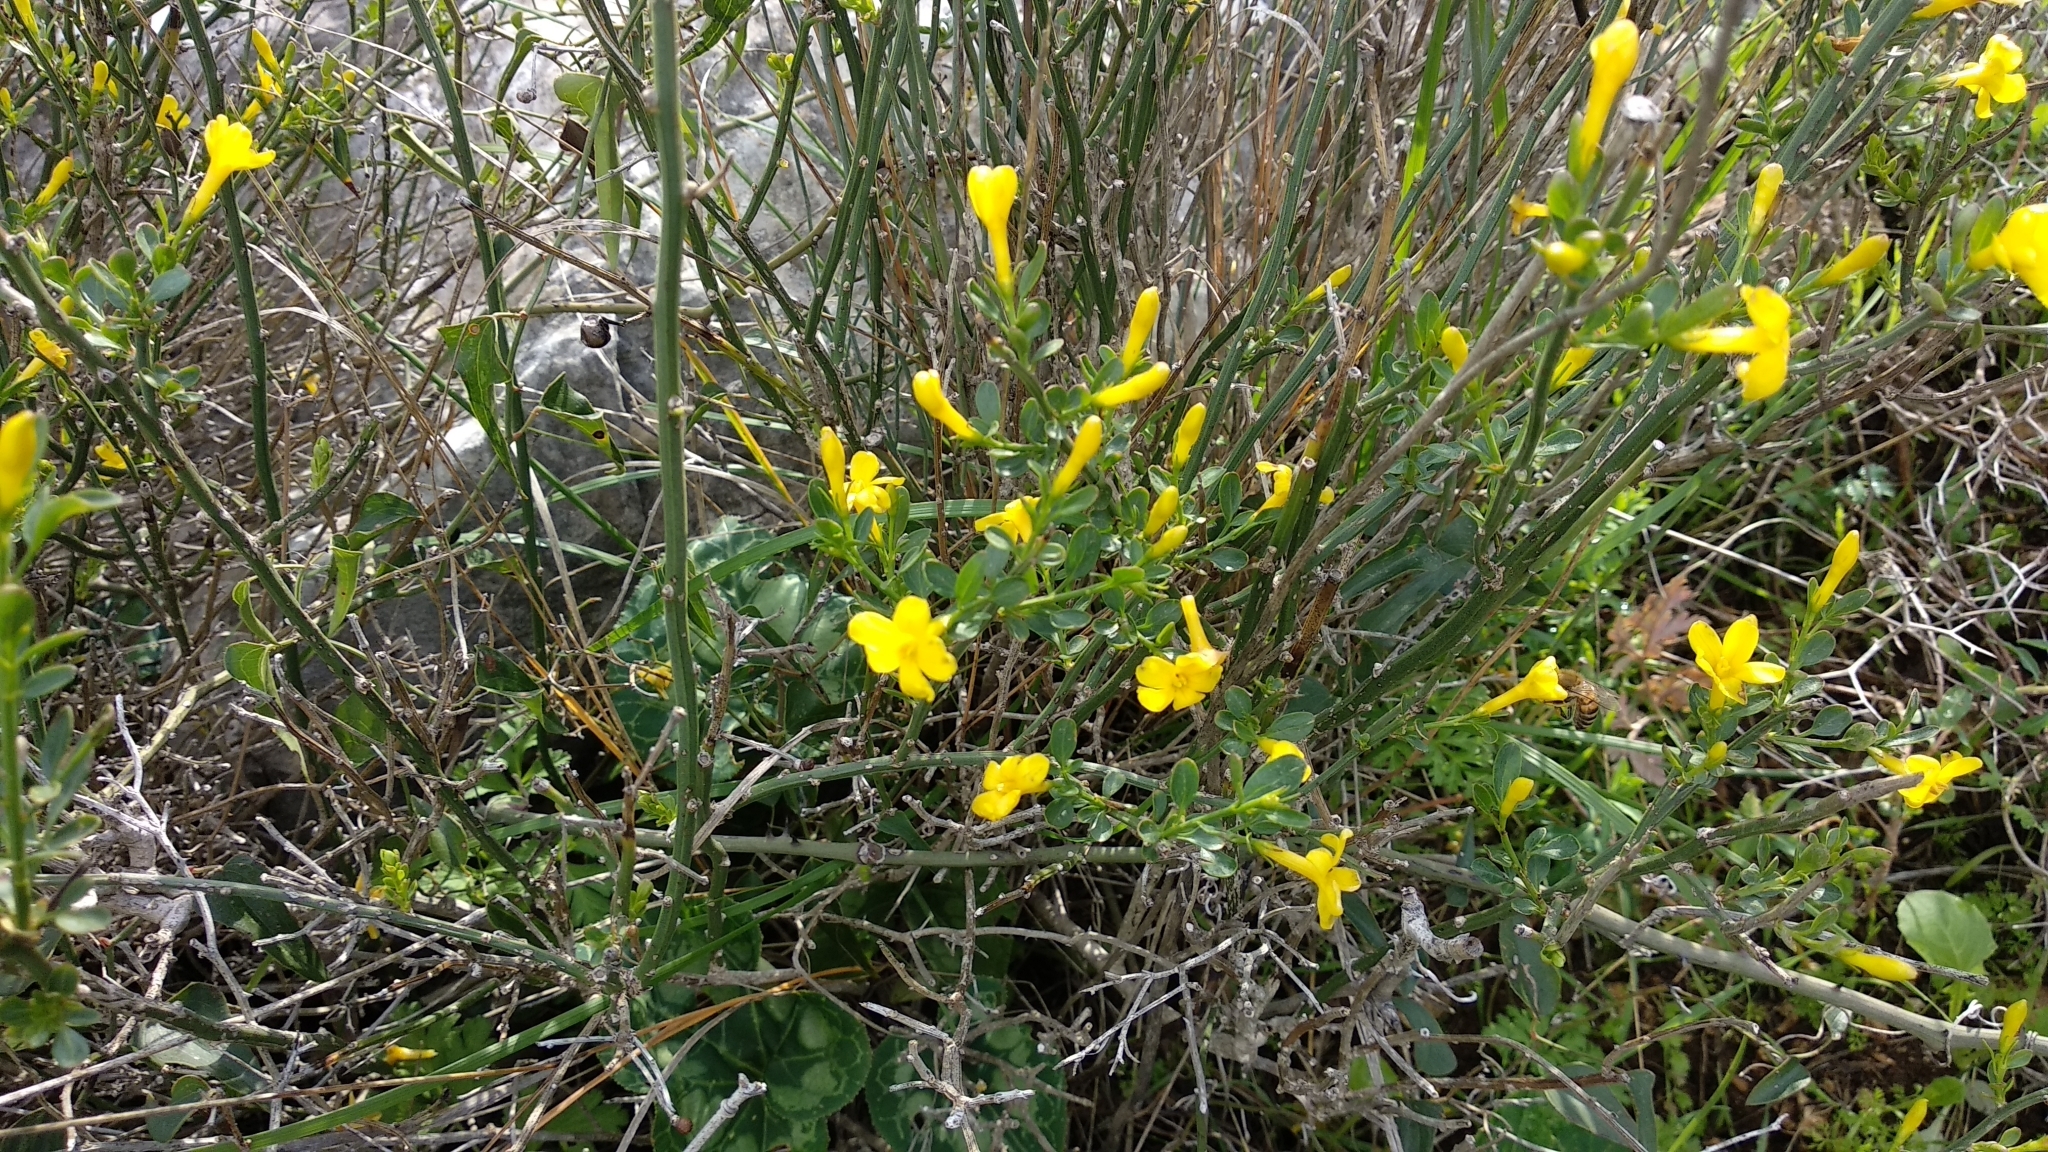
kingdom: Plantae
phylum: Tracheophyta
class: Magnoliopsida
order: Lamiales
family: Oleaceae
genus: Chrysojasminum
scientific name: Chrysojasminum fruticans
